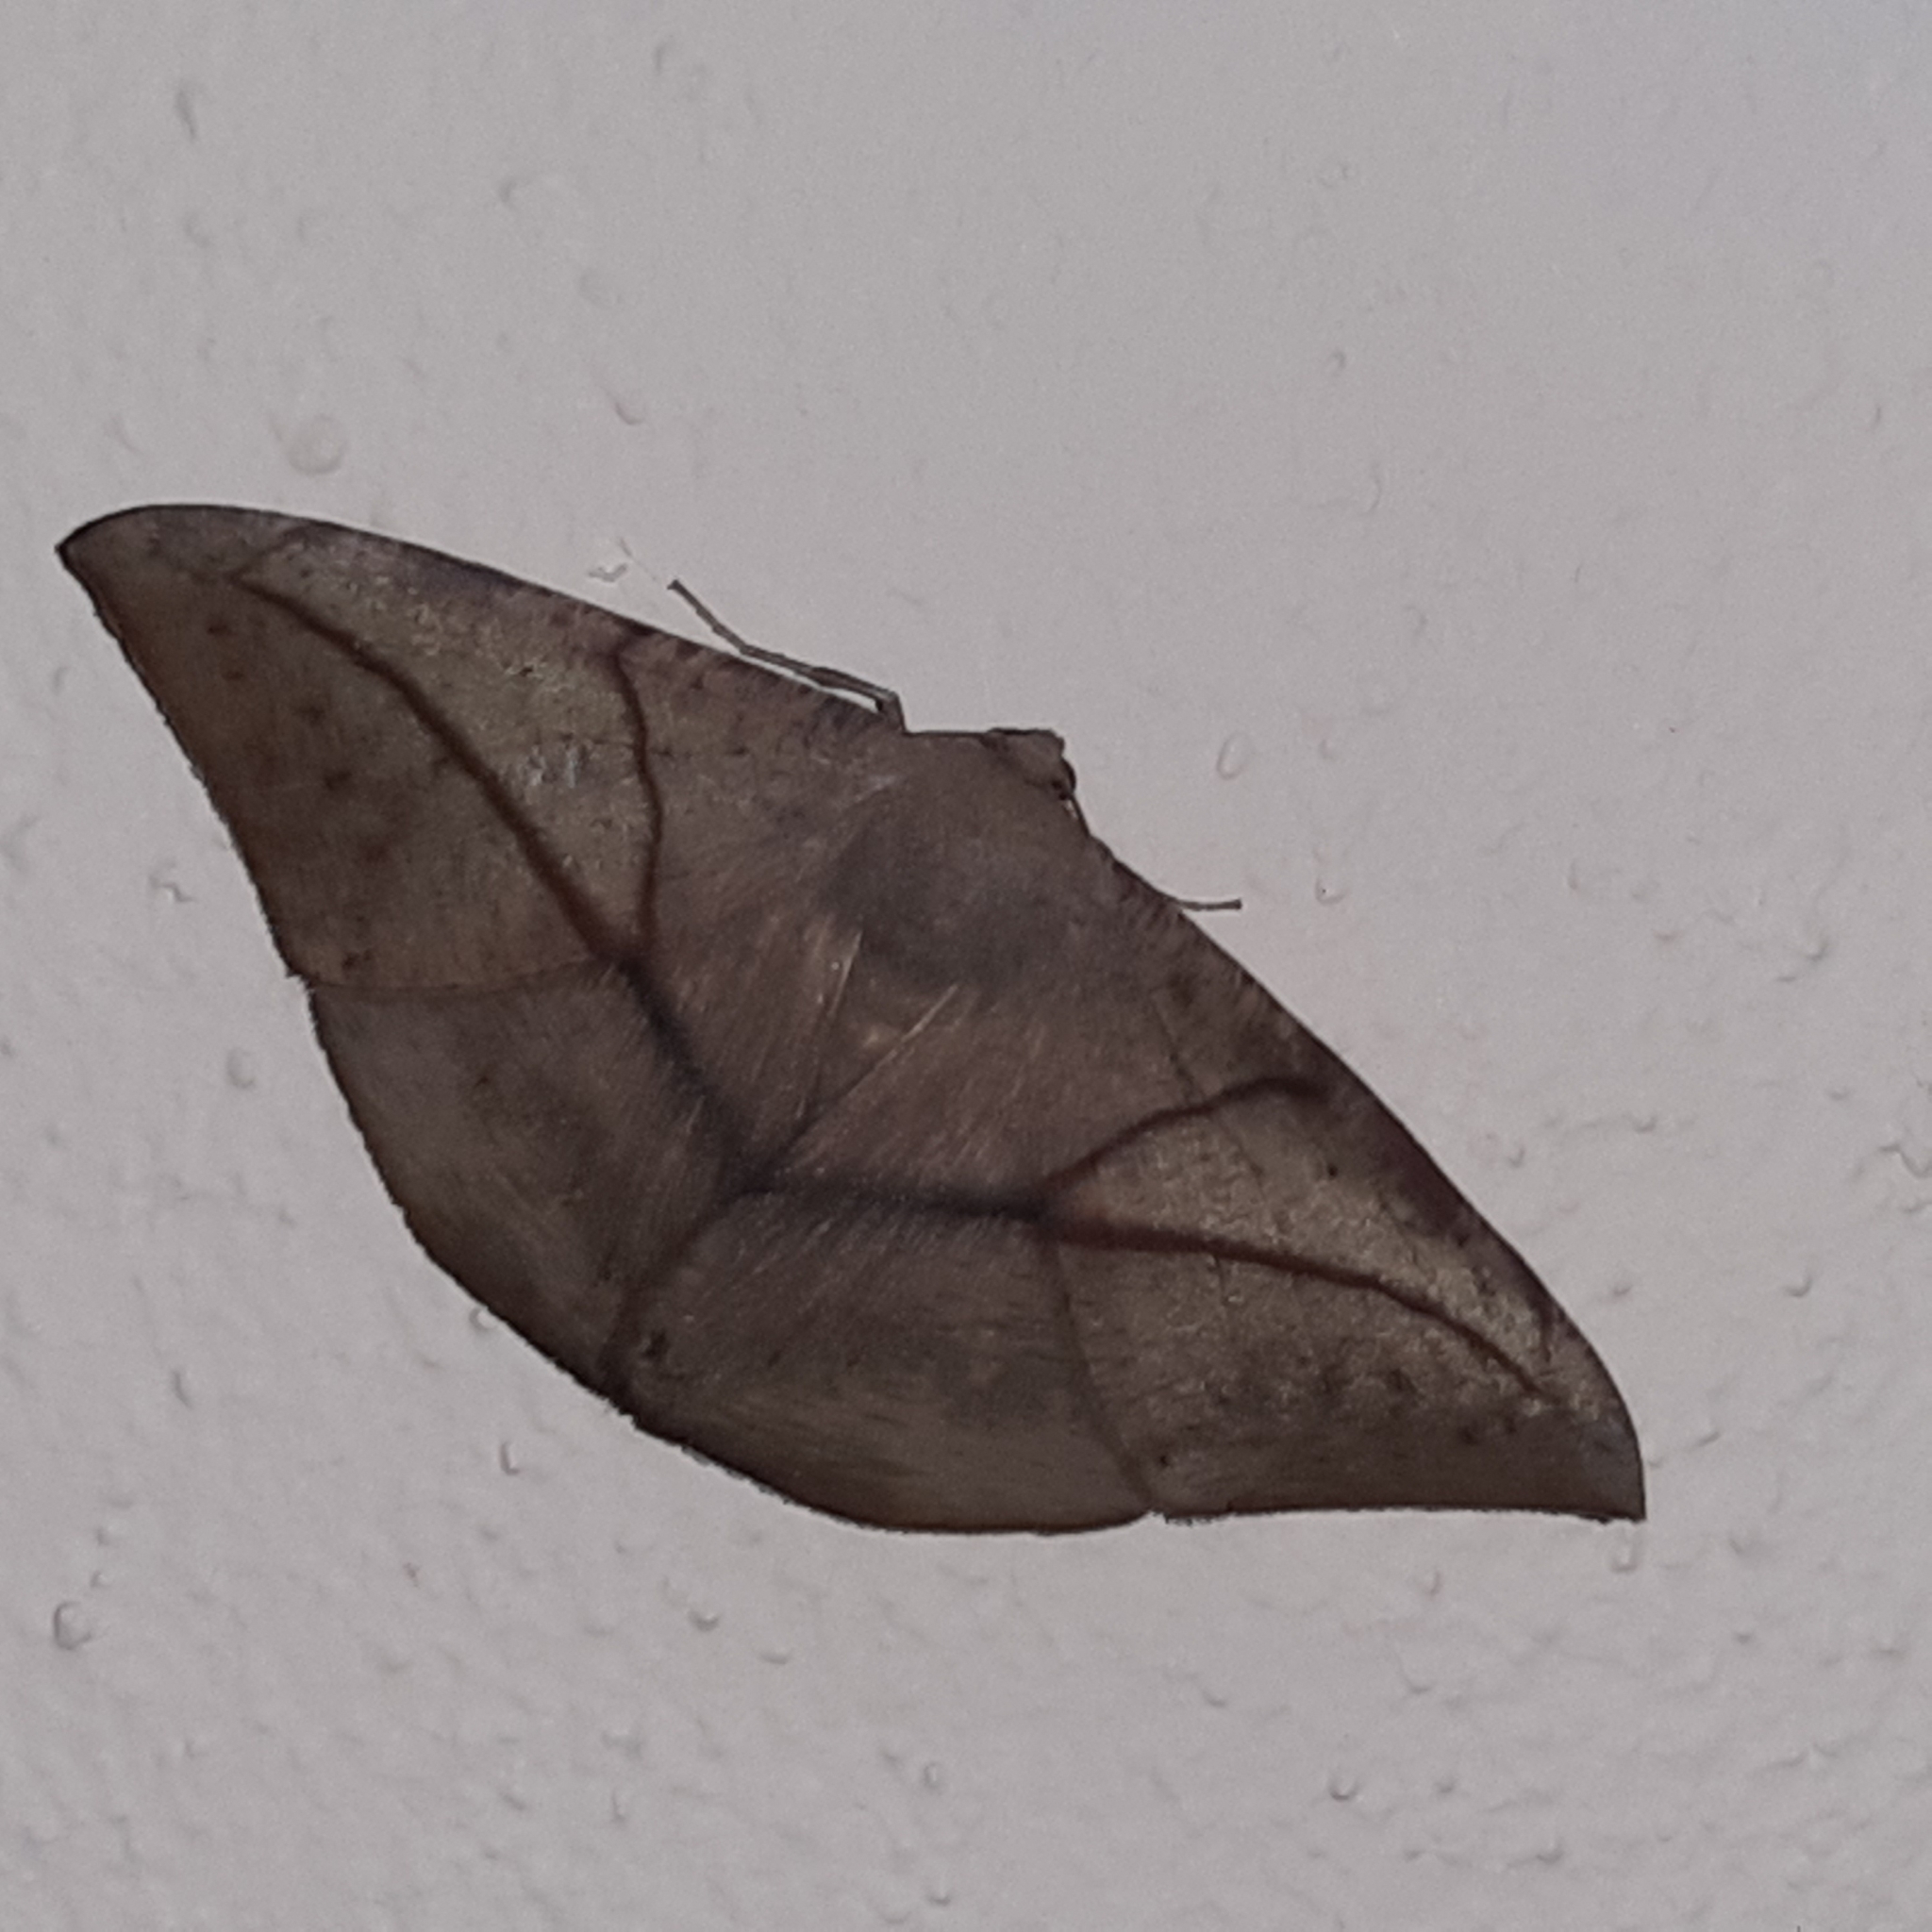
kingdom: Animalia
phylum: Arthropoda
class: Insecta
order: Lepidoptera
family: Geometridae
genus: Oxydia
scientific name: Oxydia trychiata
